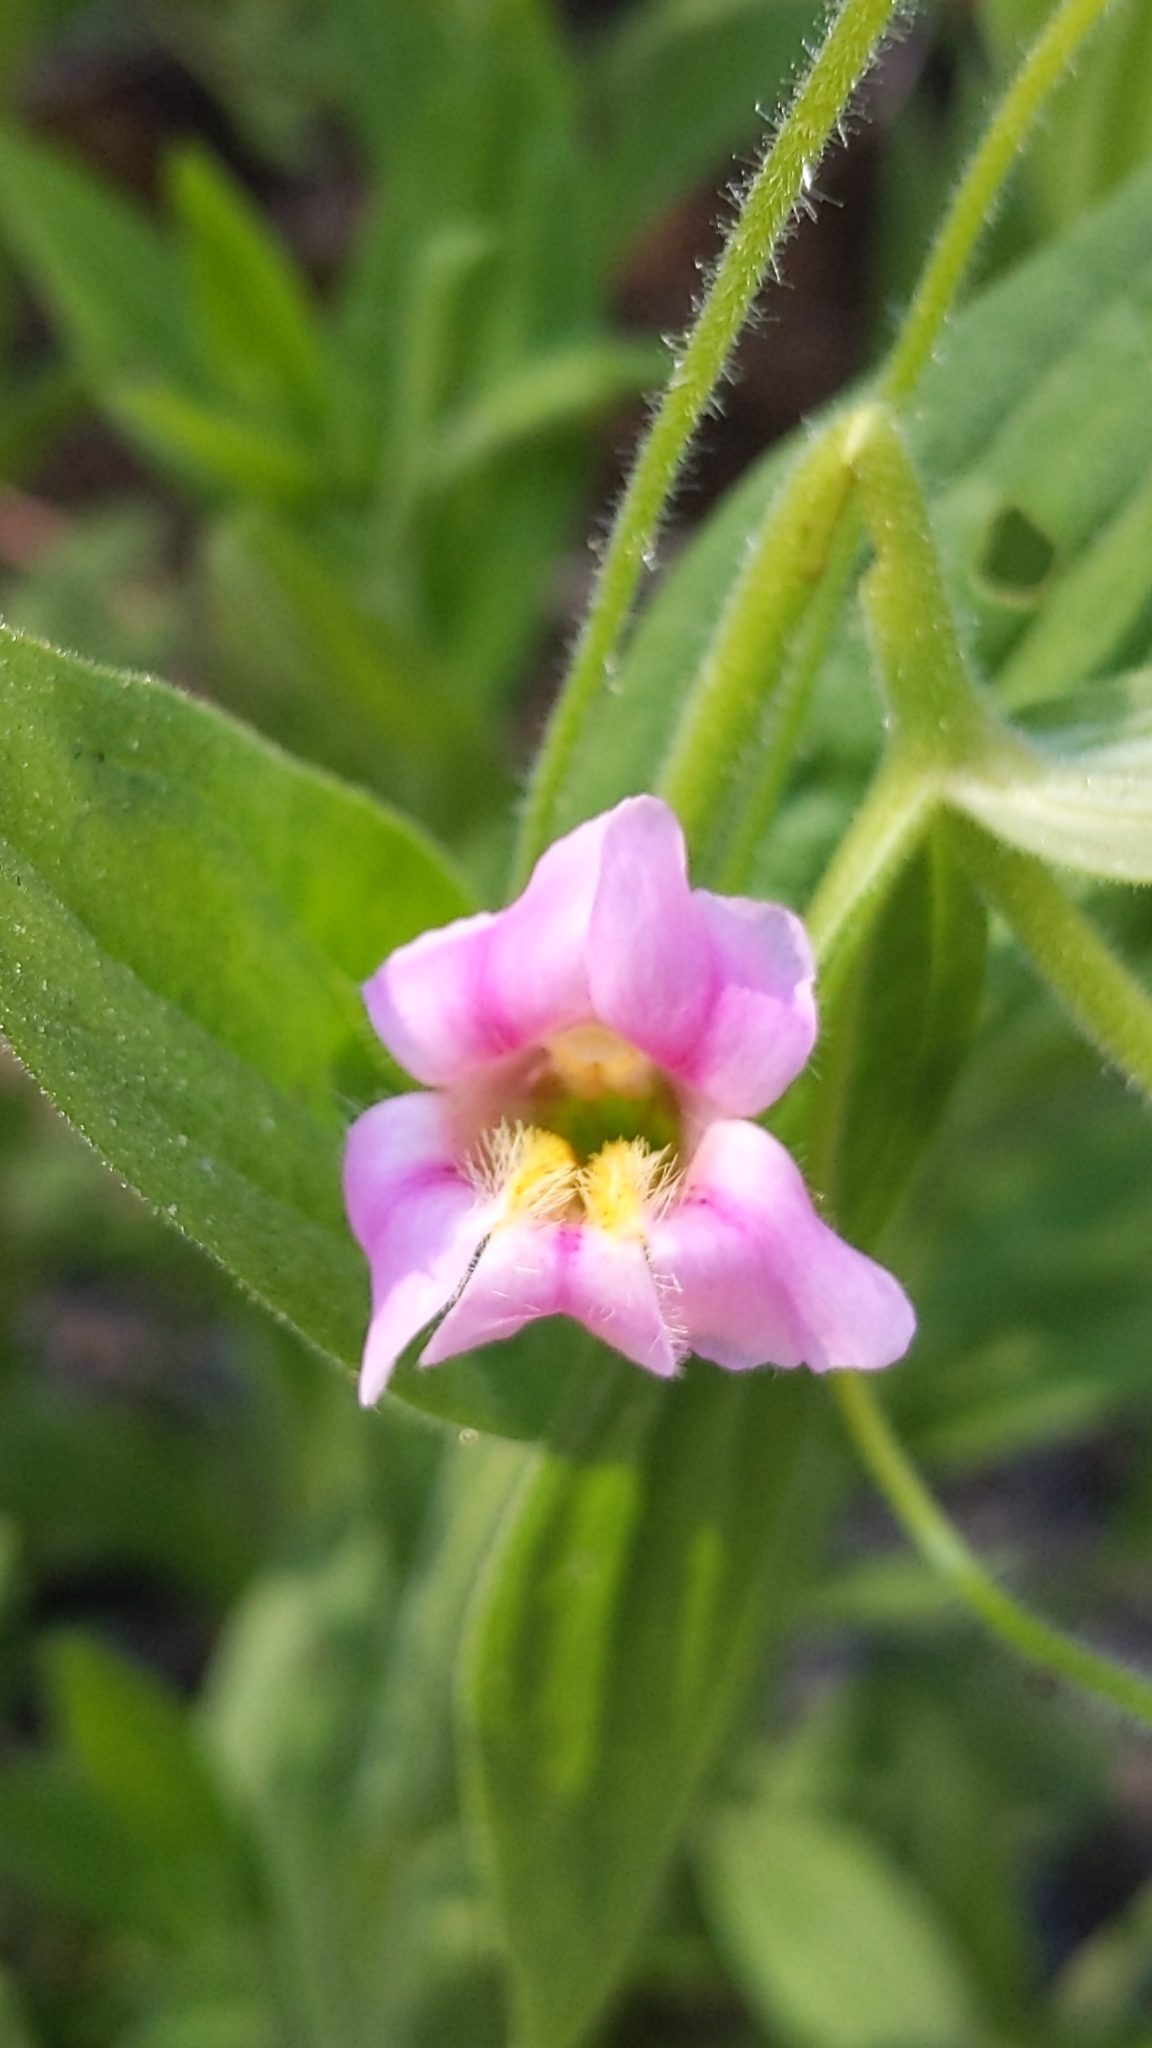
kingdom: Plantae
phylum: Tracheophyta
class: Magnoliopsida
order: Lamiales
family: Phrymaceae
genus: Erythranthe
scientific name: Erythranthe erubescens
